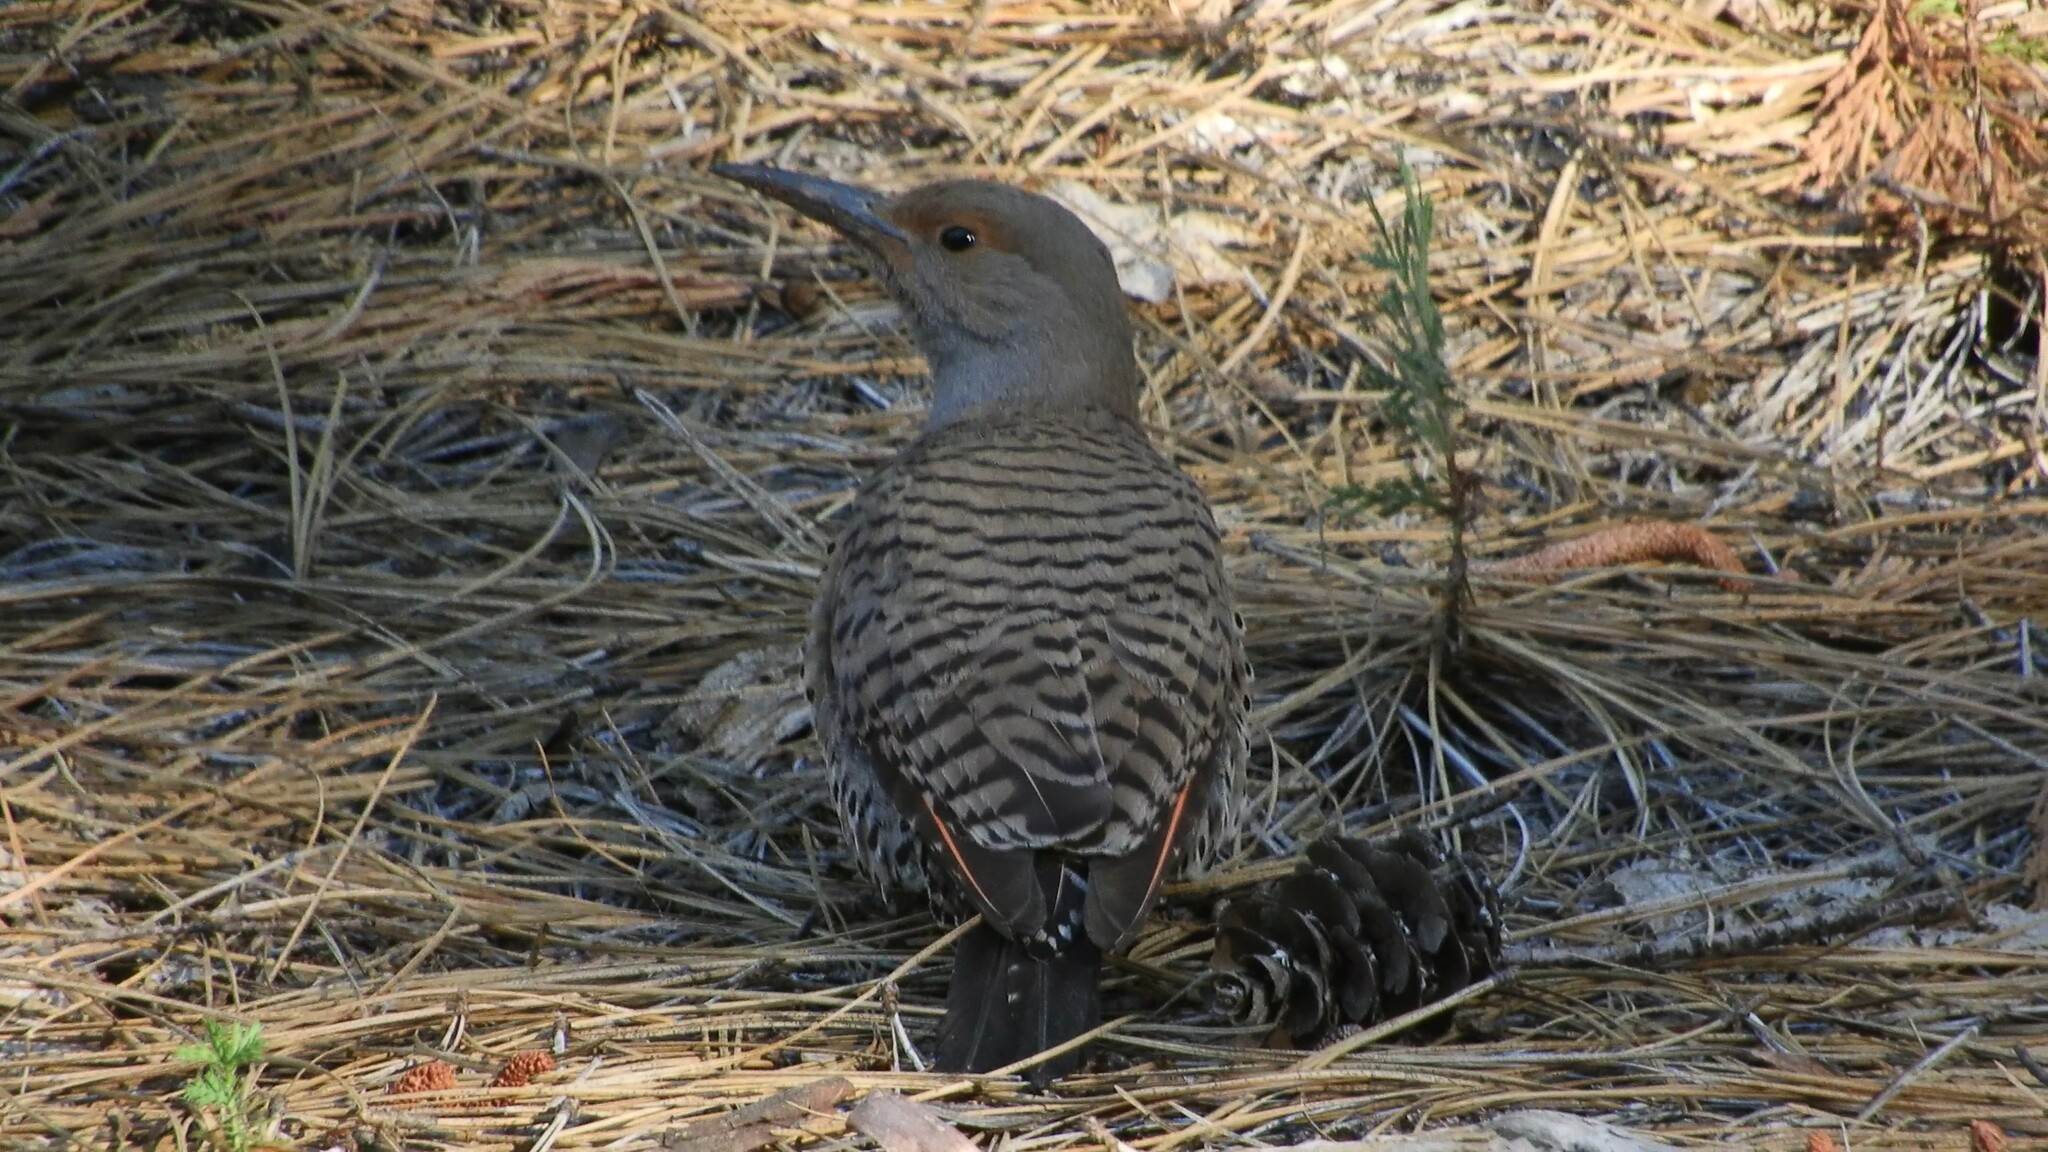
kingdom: Animalia
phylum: Chordata
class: Aves
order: Piciformes
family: Picidae
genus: Colaptes
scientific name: Colaptes auratus
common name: Northern flicker
